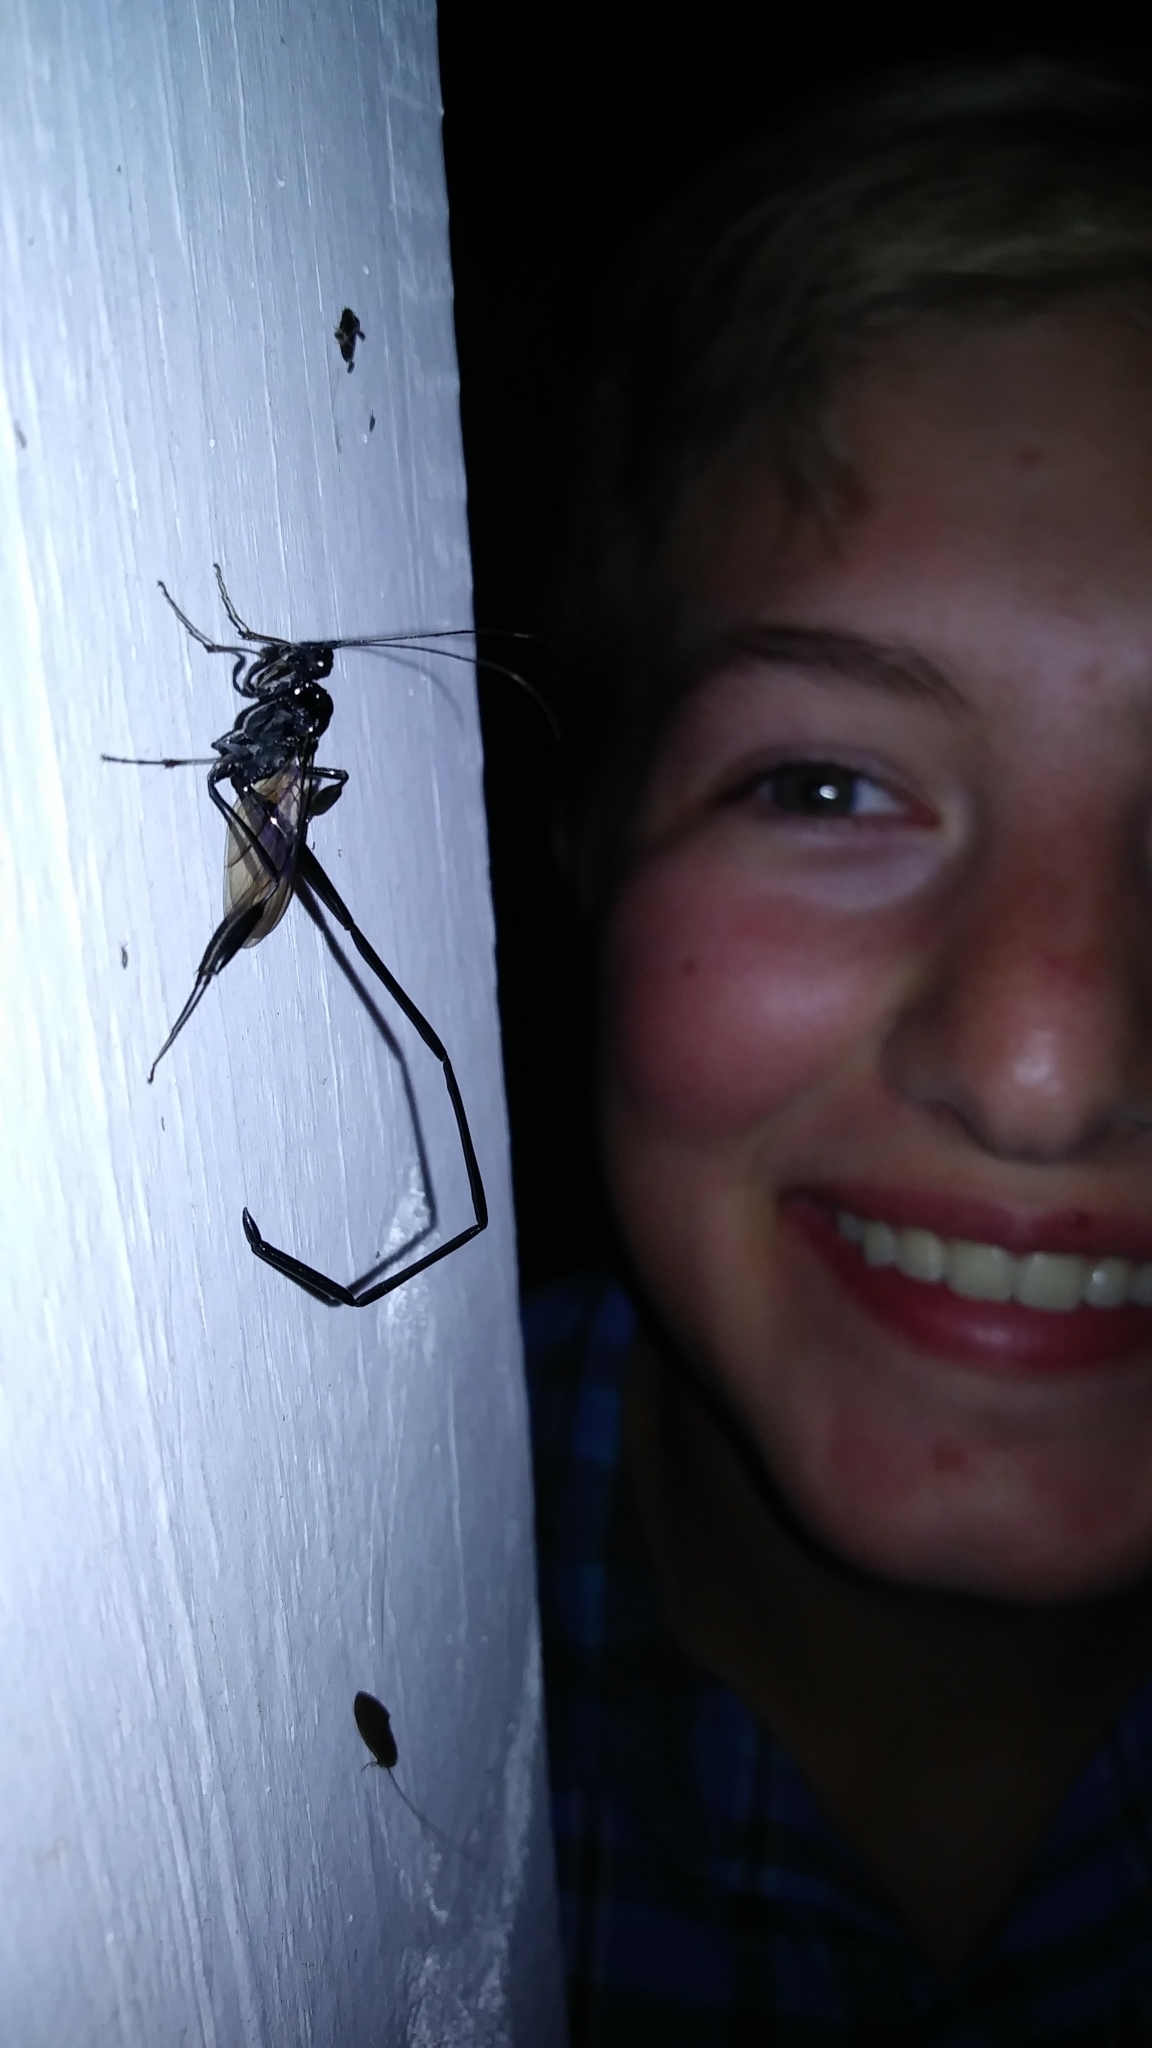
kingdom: Animalia
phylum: Arthropoda
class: Insecta
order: Hymenoptera
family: Pelecinidae
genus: Pelecinus
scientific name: Pelecinus polyturator
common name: American pelecinid wasp
